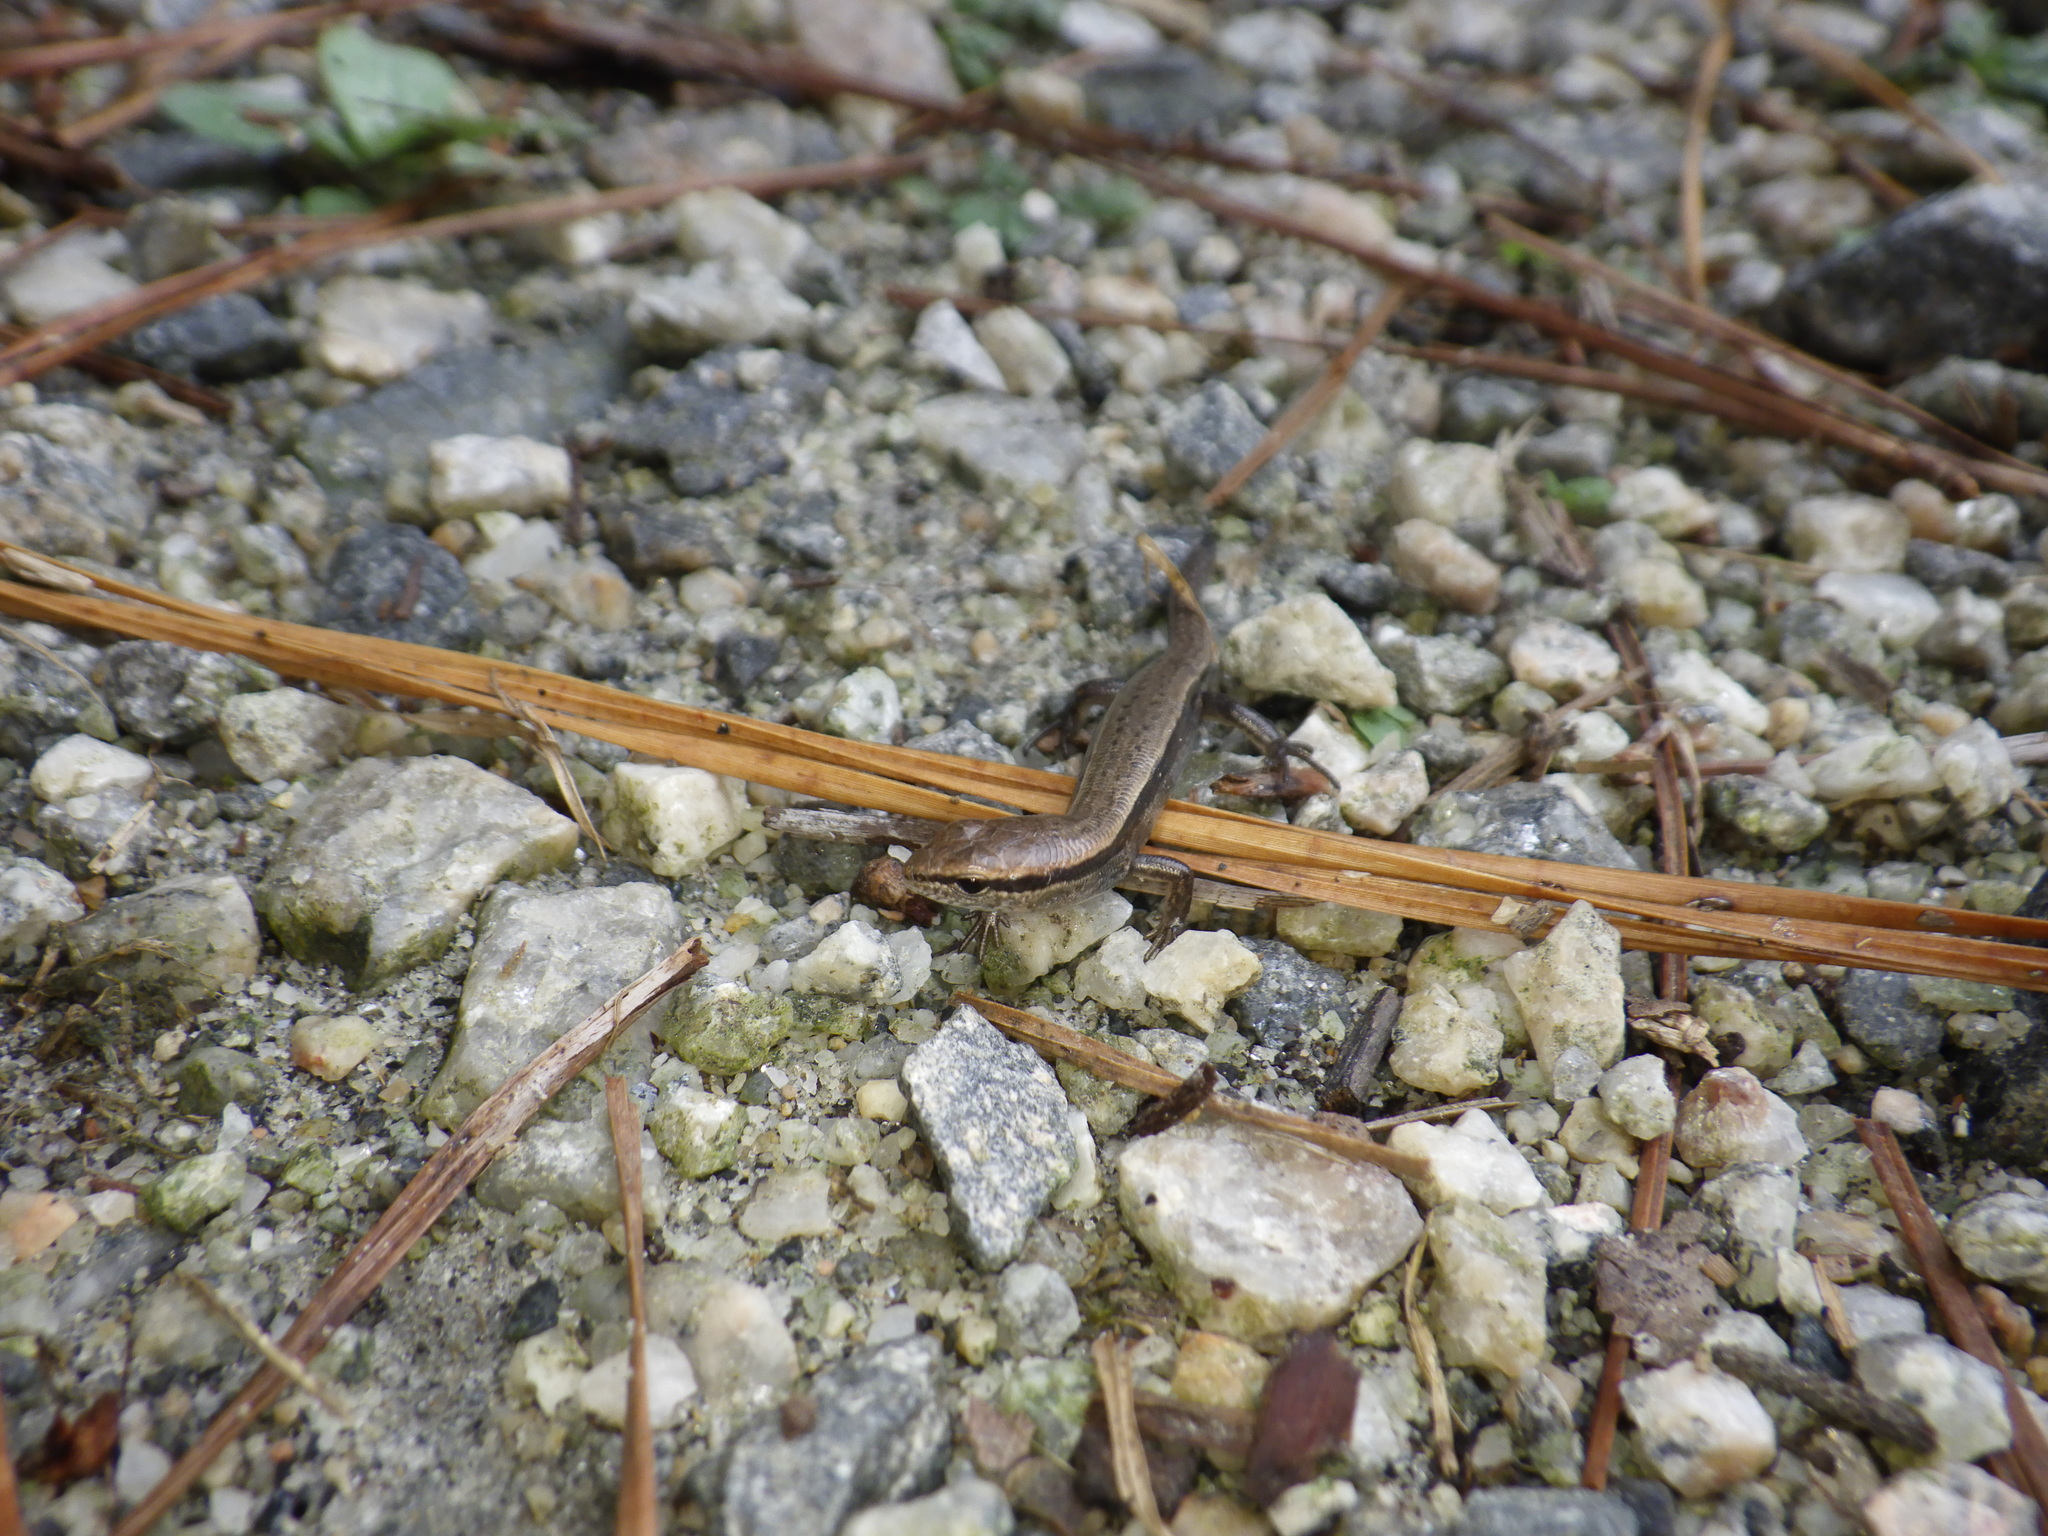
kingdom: Animalia
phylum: Chordata
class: Squamata
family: Scincidae
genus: Scincella
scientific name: Scincella lateralis
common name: Ground skink
